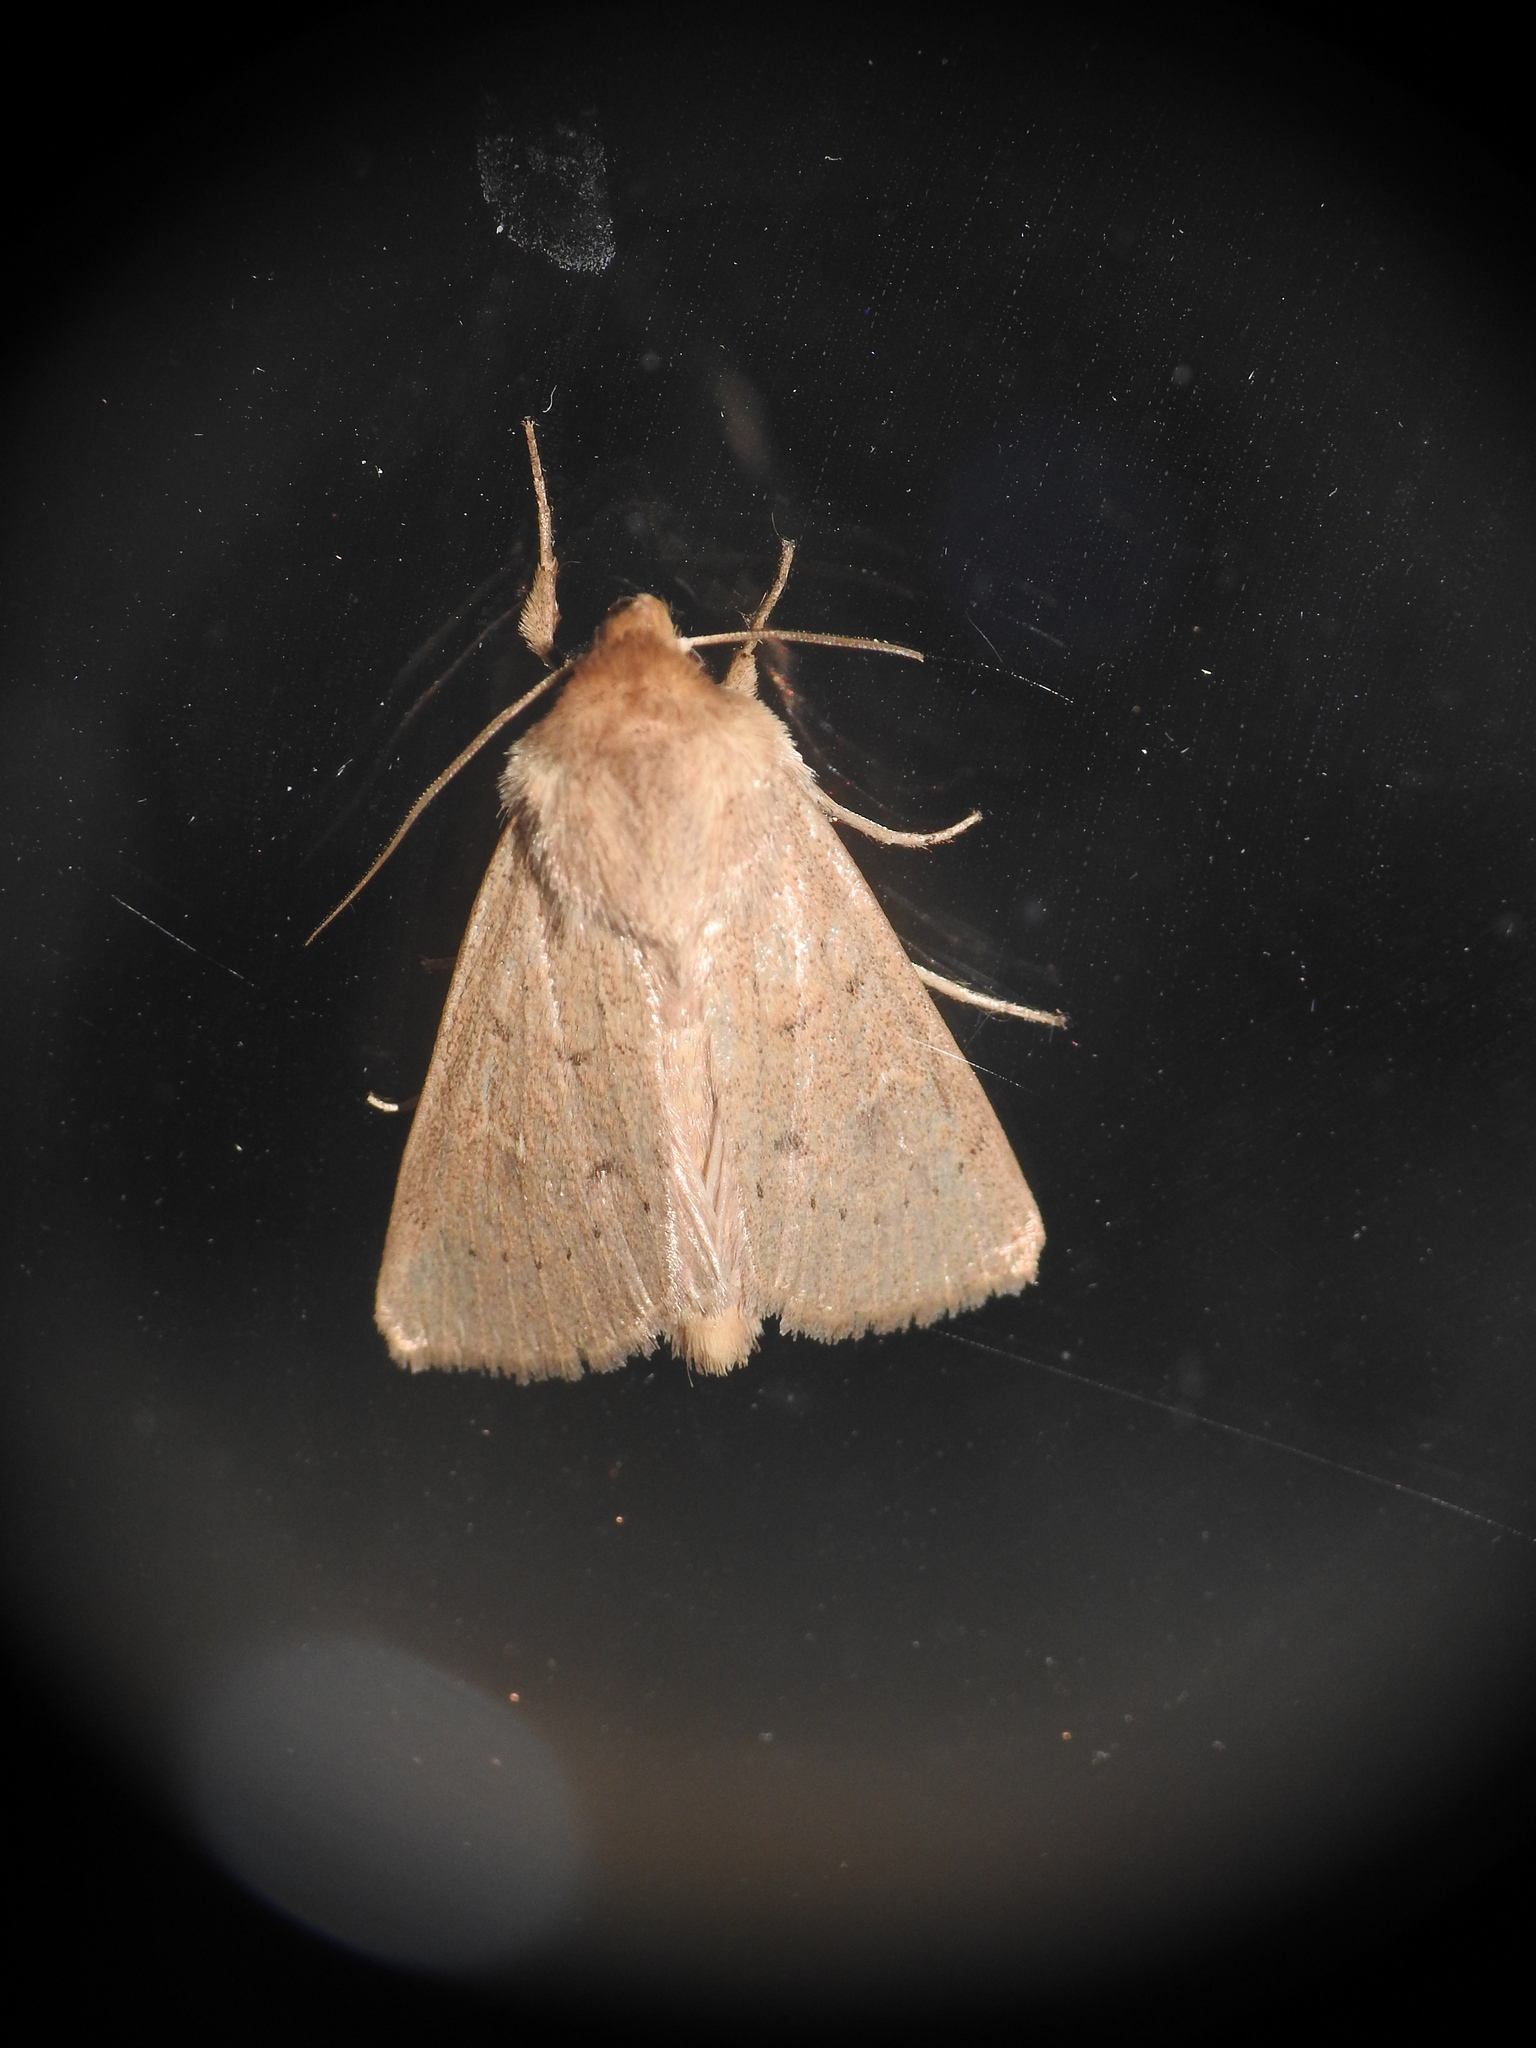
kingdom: Animalia
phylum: Arthropoda
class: Insecta
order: Lepidoptera
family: Noctuidae
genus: Mythimna
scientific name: Mythimna ferrago
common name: Clay
